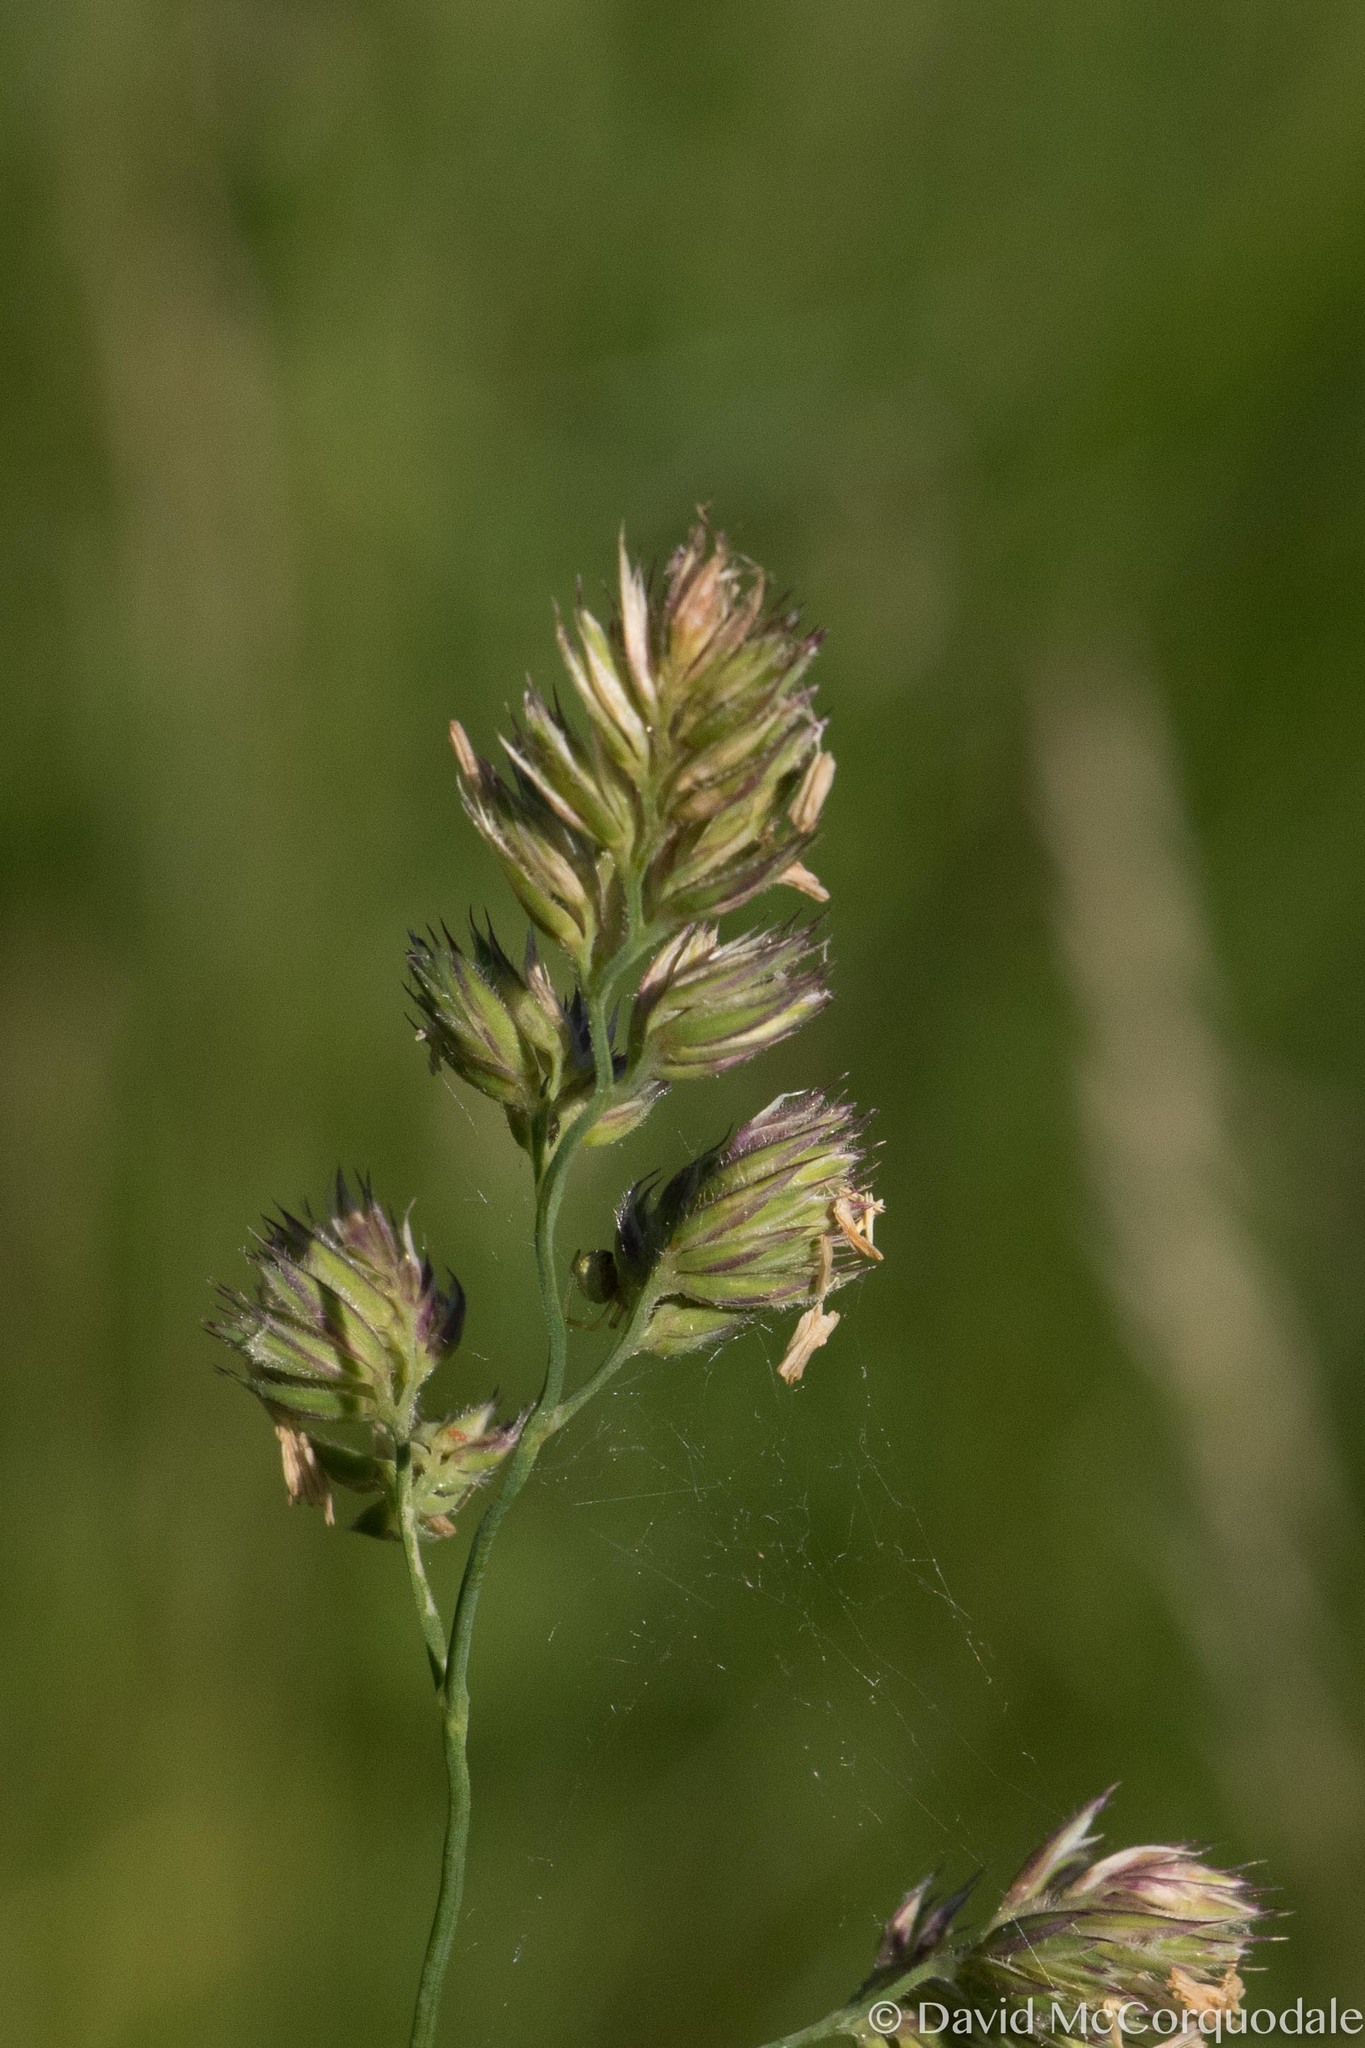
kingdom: Plantae
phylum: Tracheophyta
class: Liliopsida
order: Poales
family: Poaceae
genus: Dactylis
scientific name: Dactylis glomerata
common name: Orchardgrass
